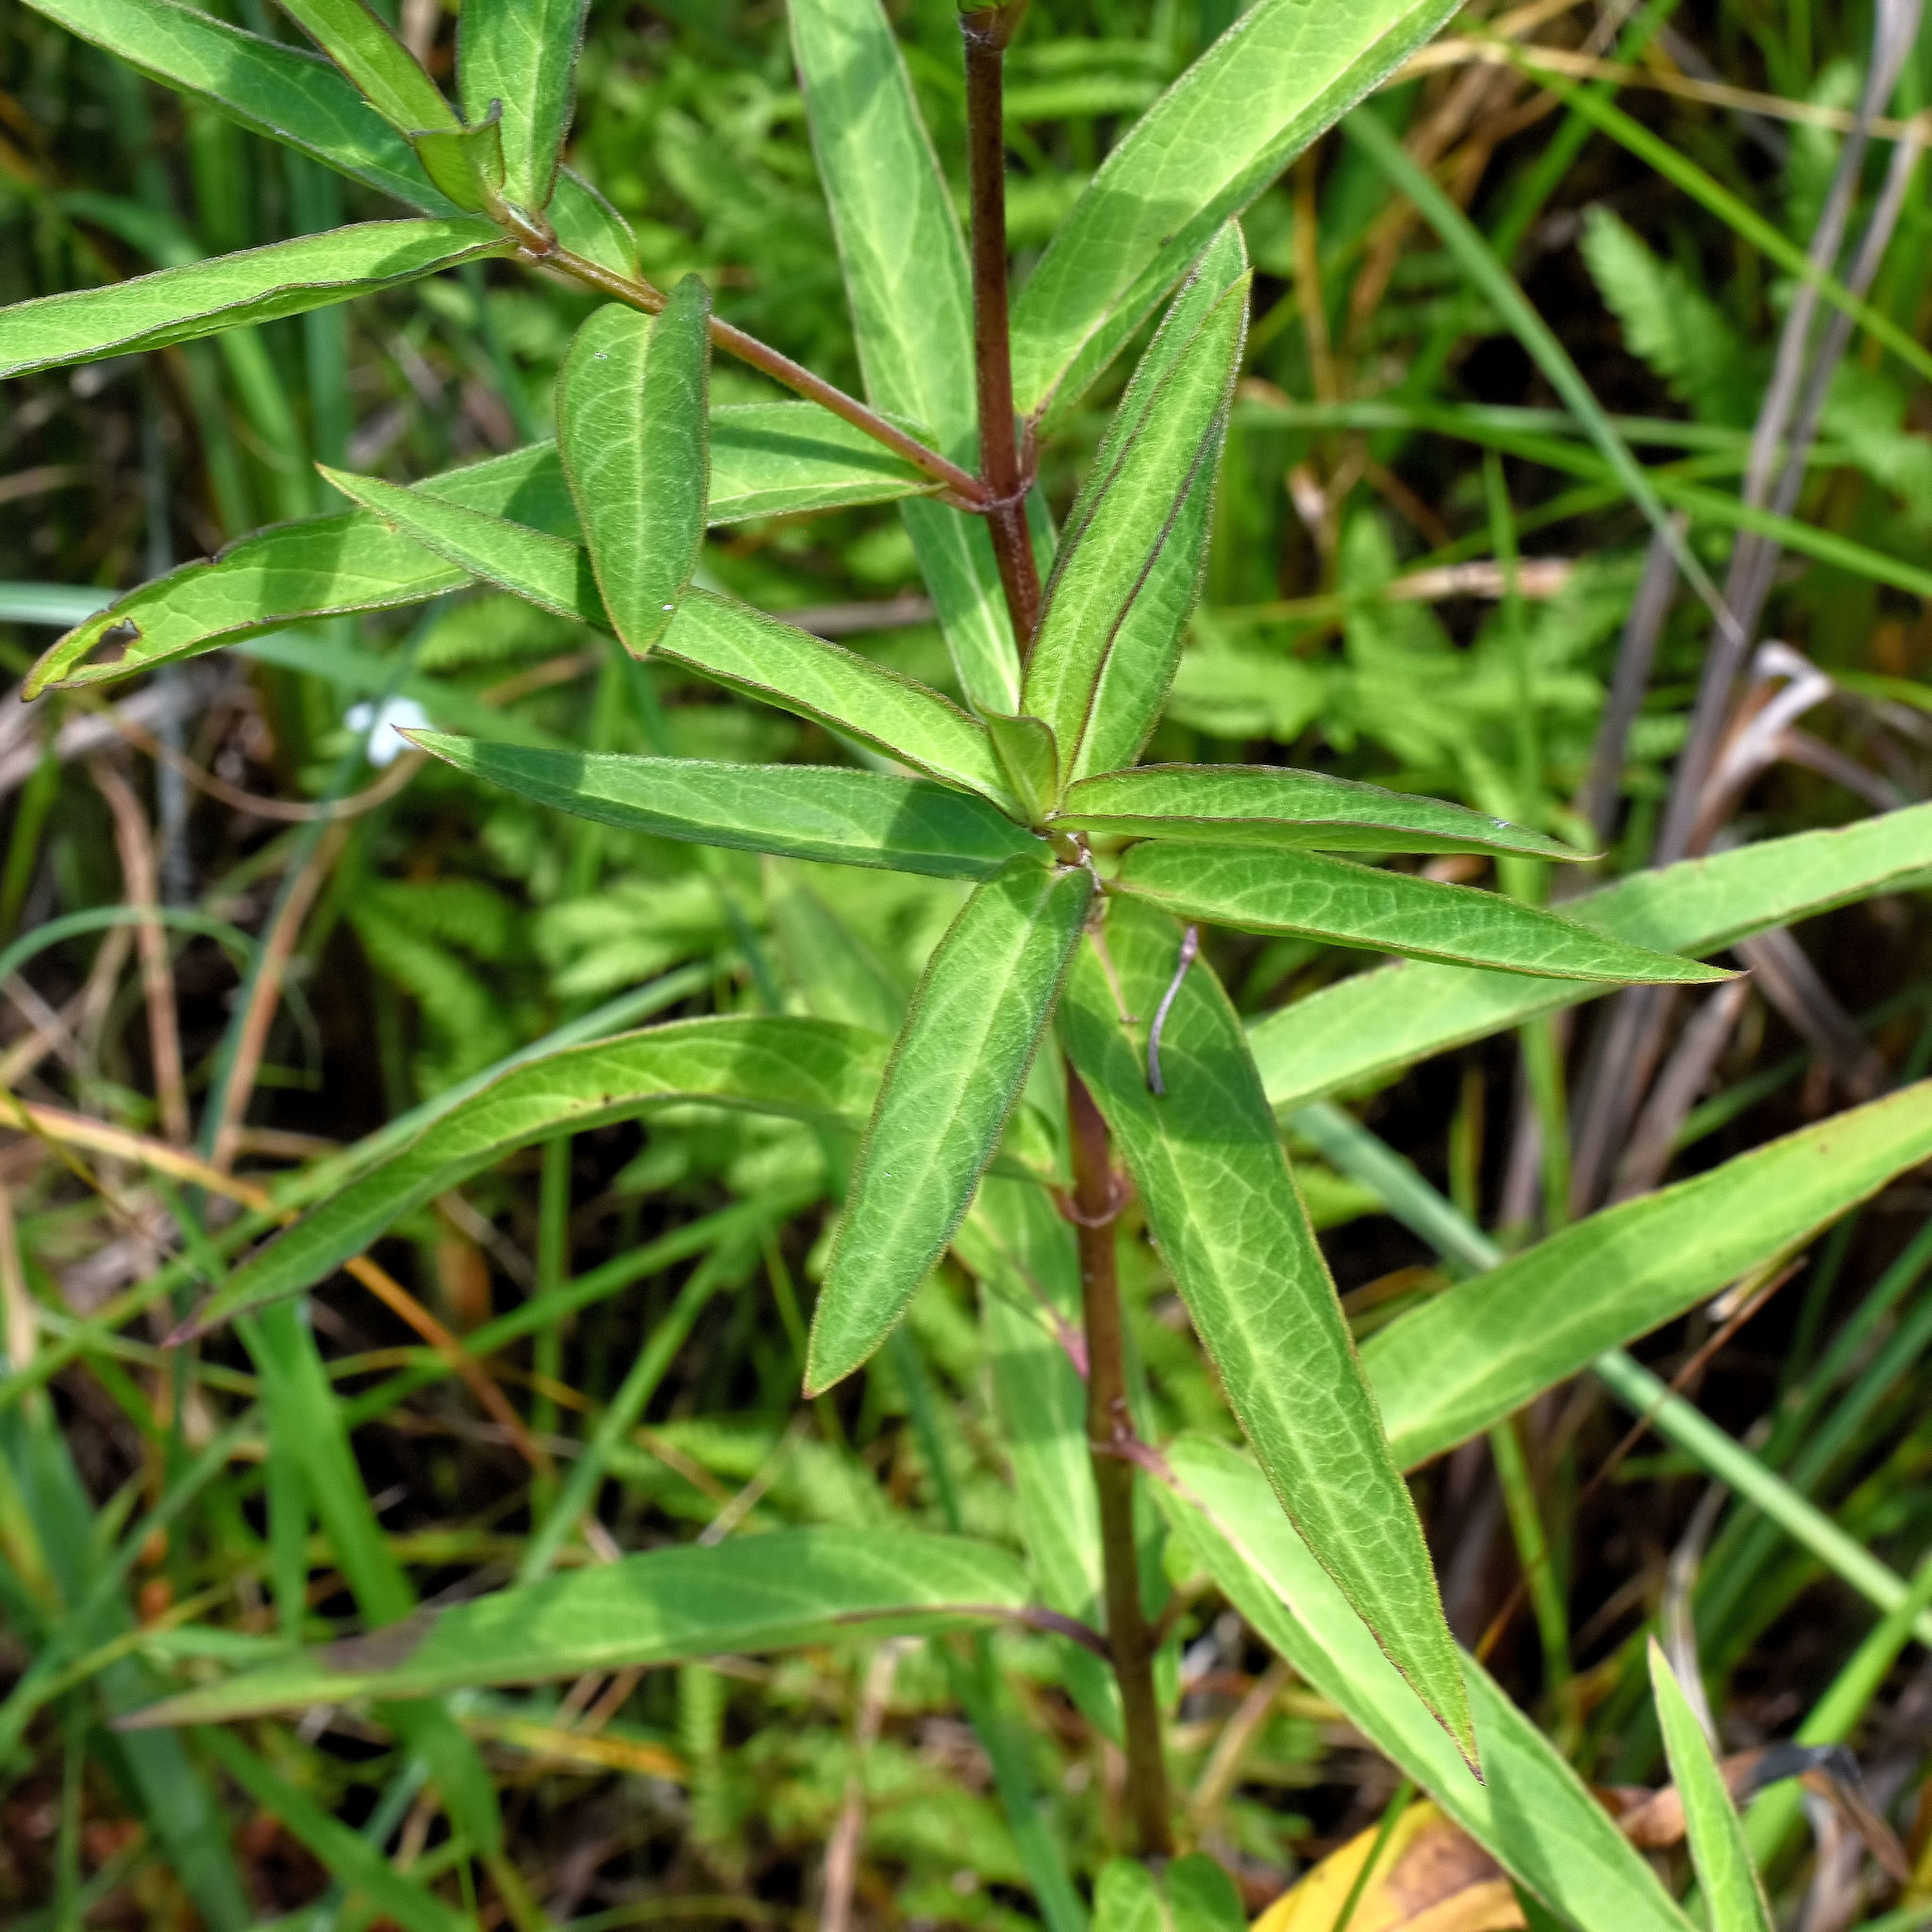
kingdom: Plantae
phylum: Tracheophyta
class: Magnoliopsida
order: Gentianales
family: Apocynaceae
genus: Asclepias
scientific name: Asclepias incarnata
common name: Swamp milkweed
